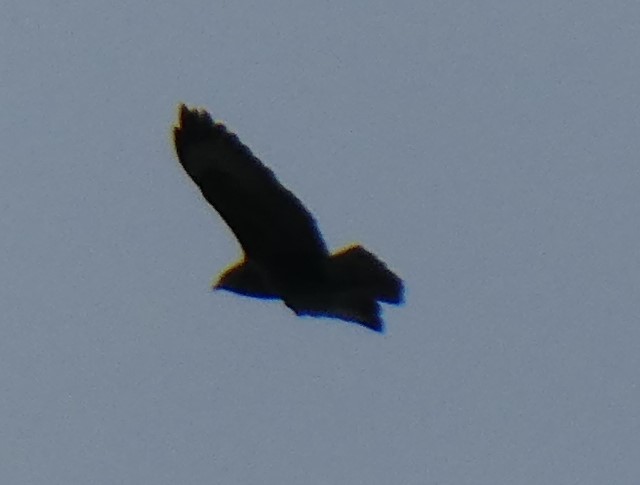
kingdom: Animalia
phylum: Chordata
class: Aves
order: Accipitriformes
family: Accipitridae
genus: Buteo
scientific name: Buteo buteo
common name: Common buzzard
